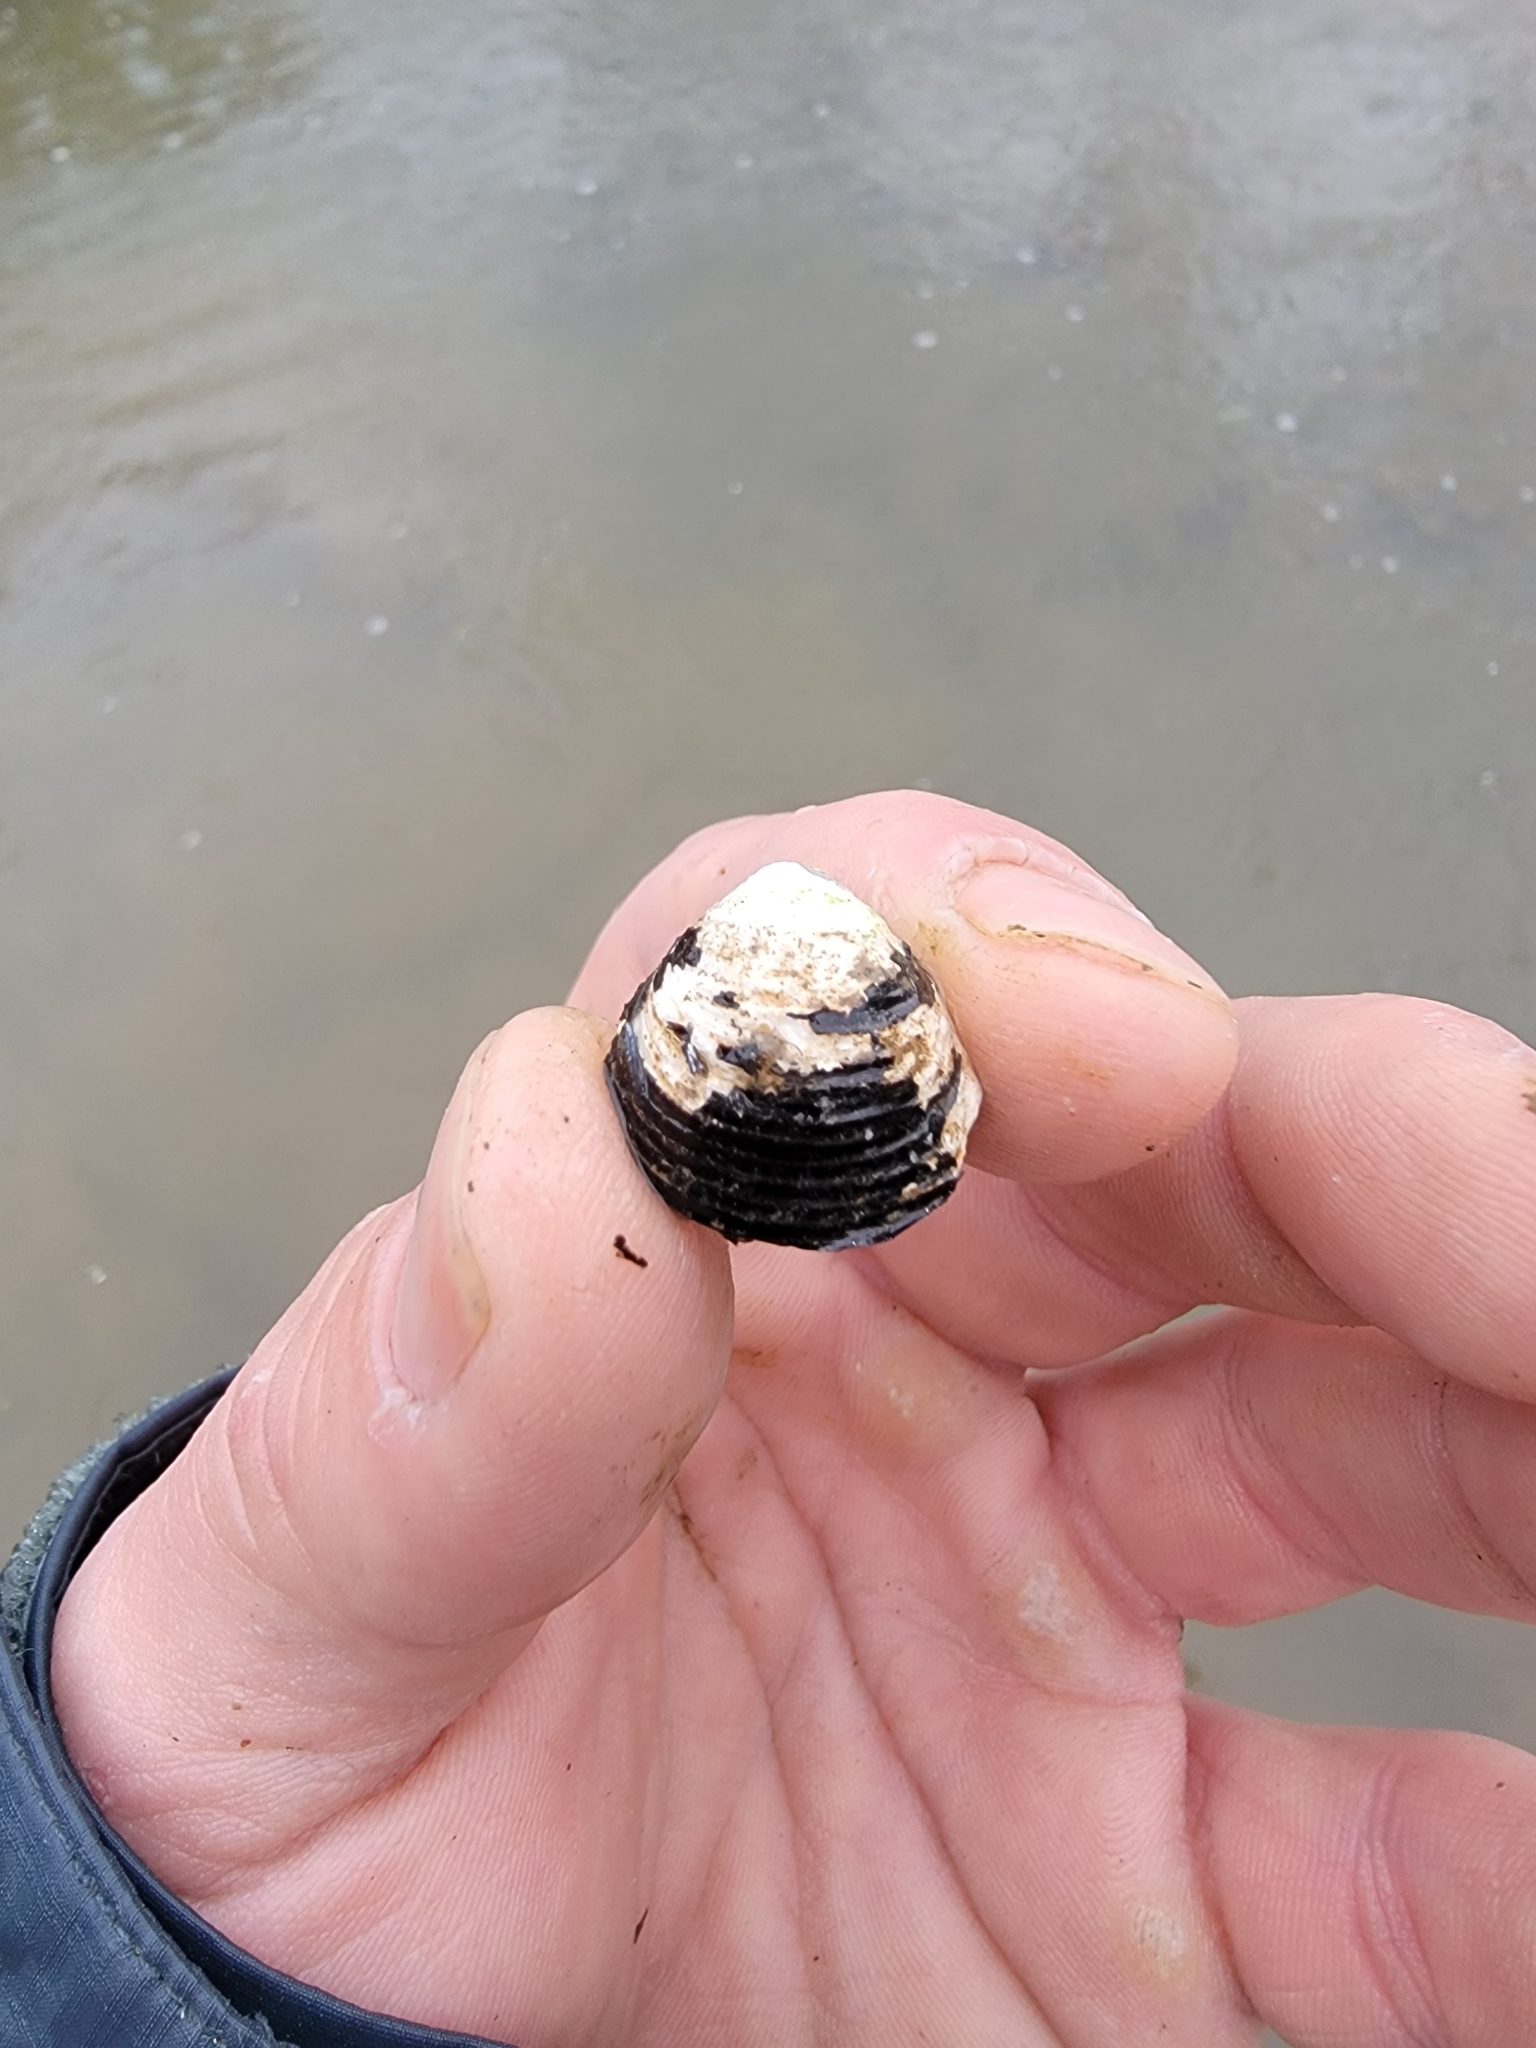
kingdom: Animalia
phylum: Mollusca
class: Bivalvia
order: Venerida
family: Cyrenidae
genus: Corbicula
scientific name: Corbicula fluminea
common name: Asian clam
